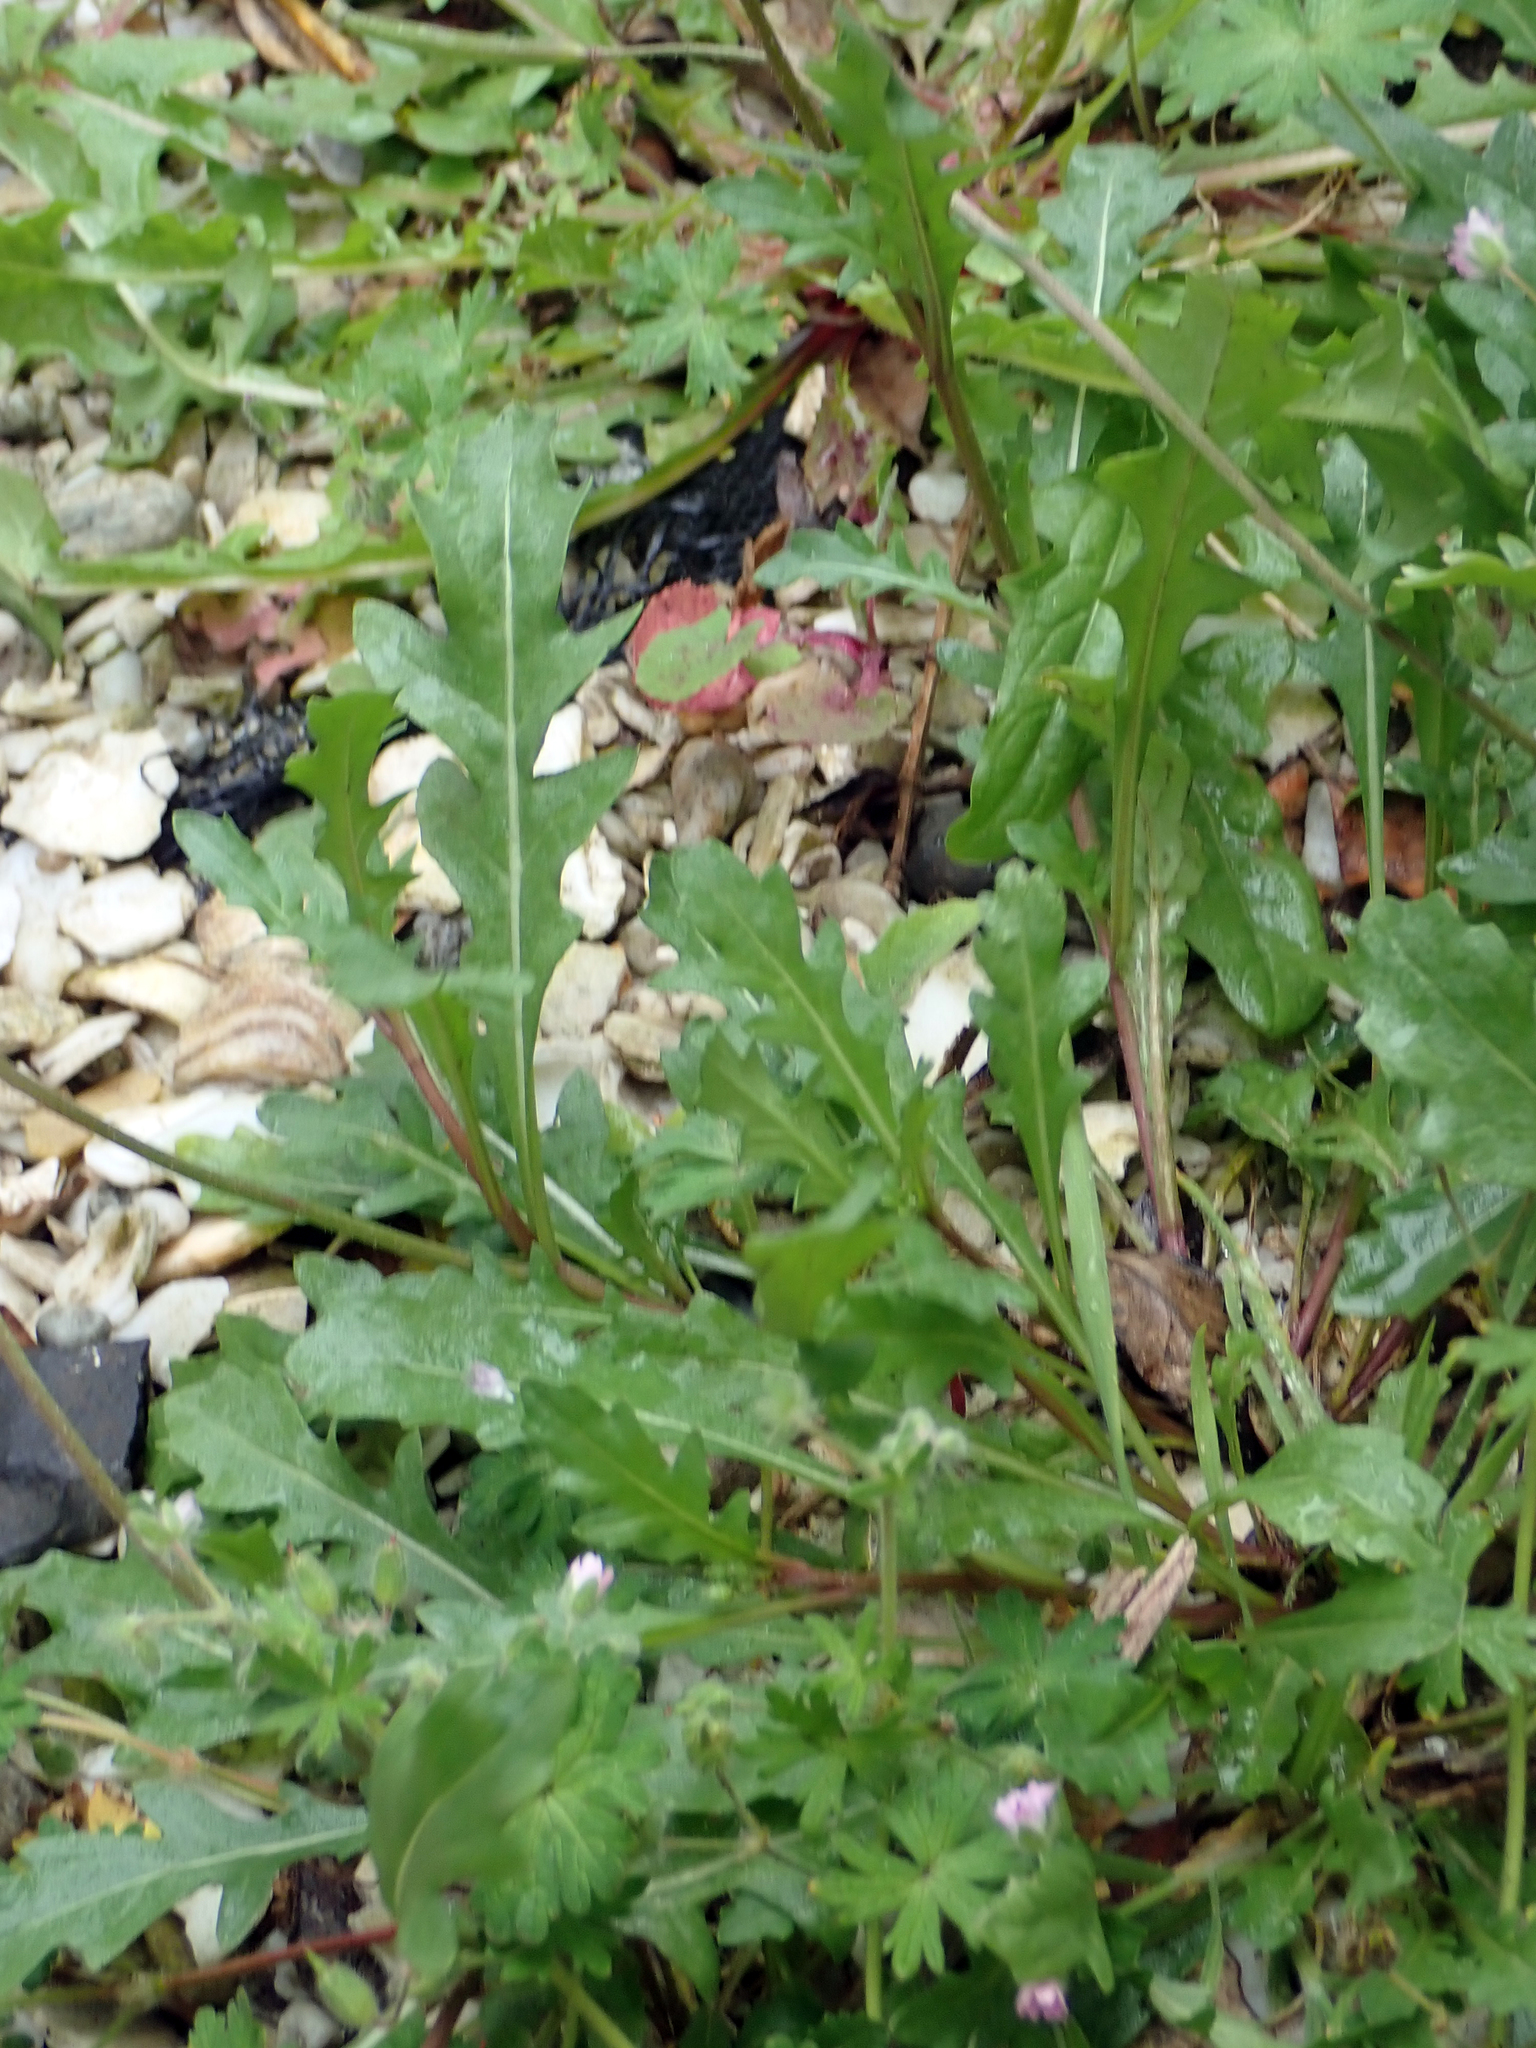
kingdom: Plantae
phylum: Tracheophyta
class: Magnoliopsida
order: Brassicales
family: Brassicaceae
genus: Diplotaxis
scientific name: Diplotaxis muralis
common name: Annual wall-rocket
